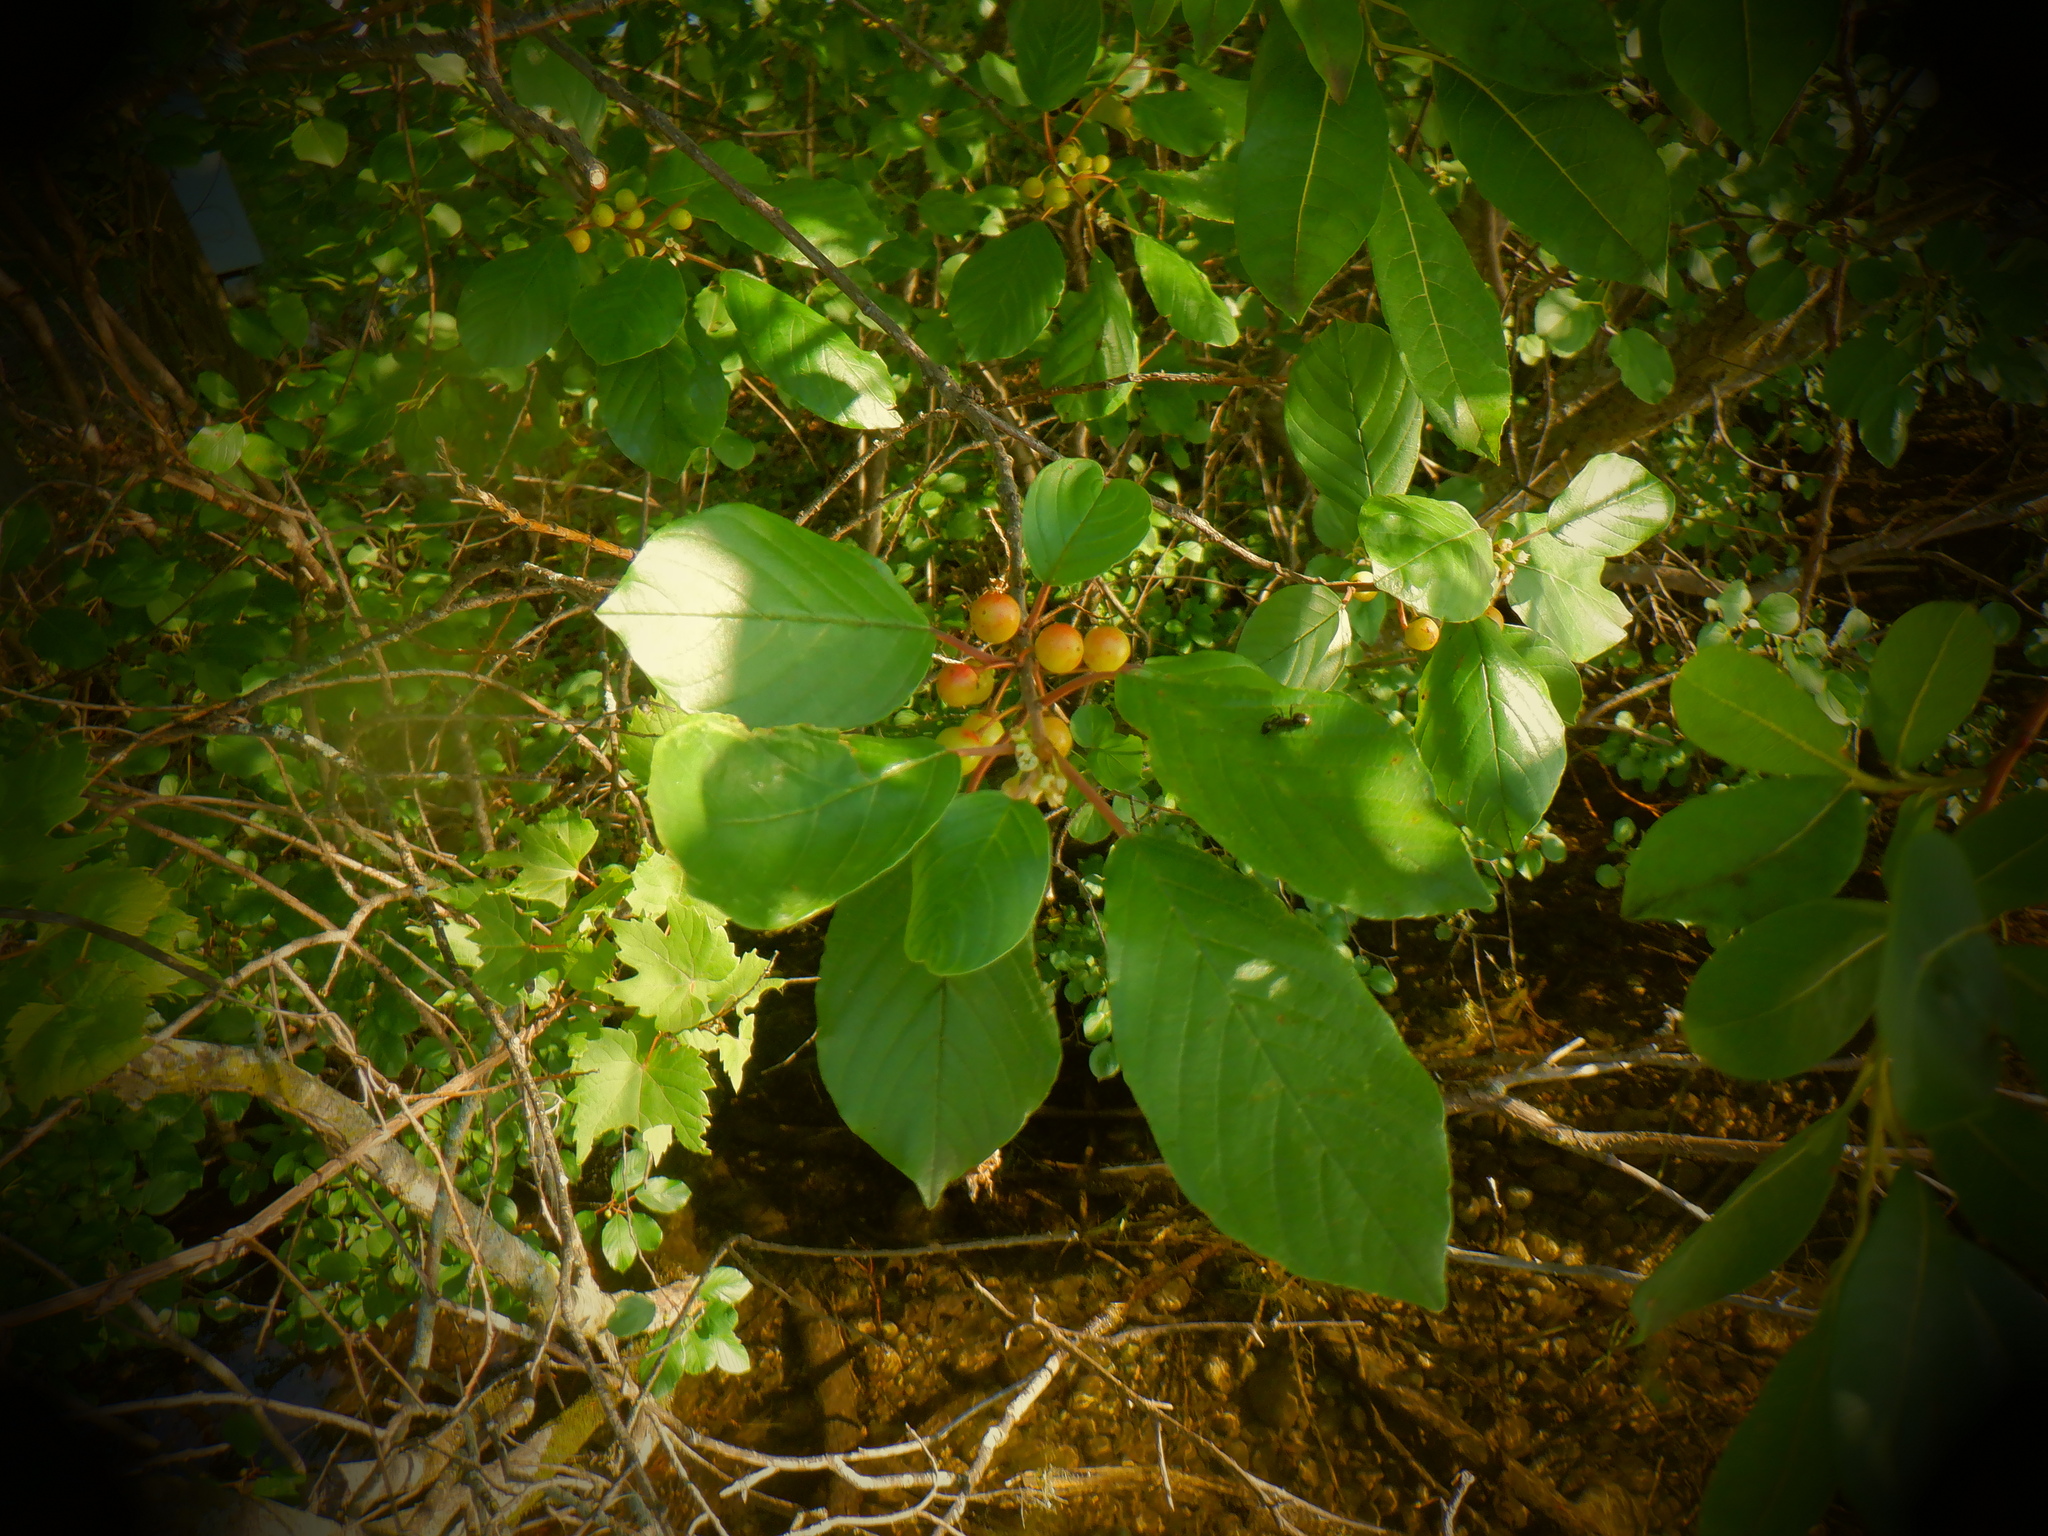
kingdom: Plantae
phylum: Tracheophyta
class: Magnoliopsida
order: Rosales
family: Rhamnaceae
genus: Frangula
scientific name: Frangula alnus
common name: Alder buckthorn
